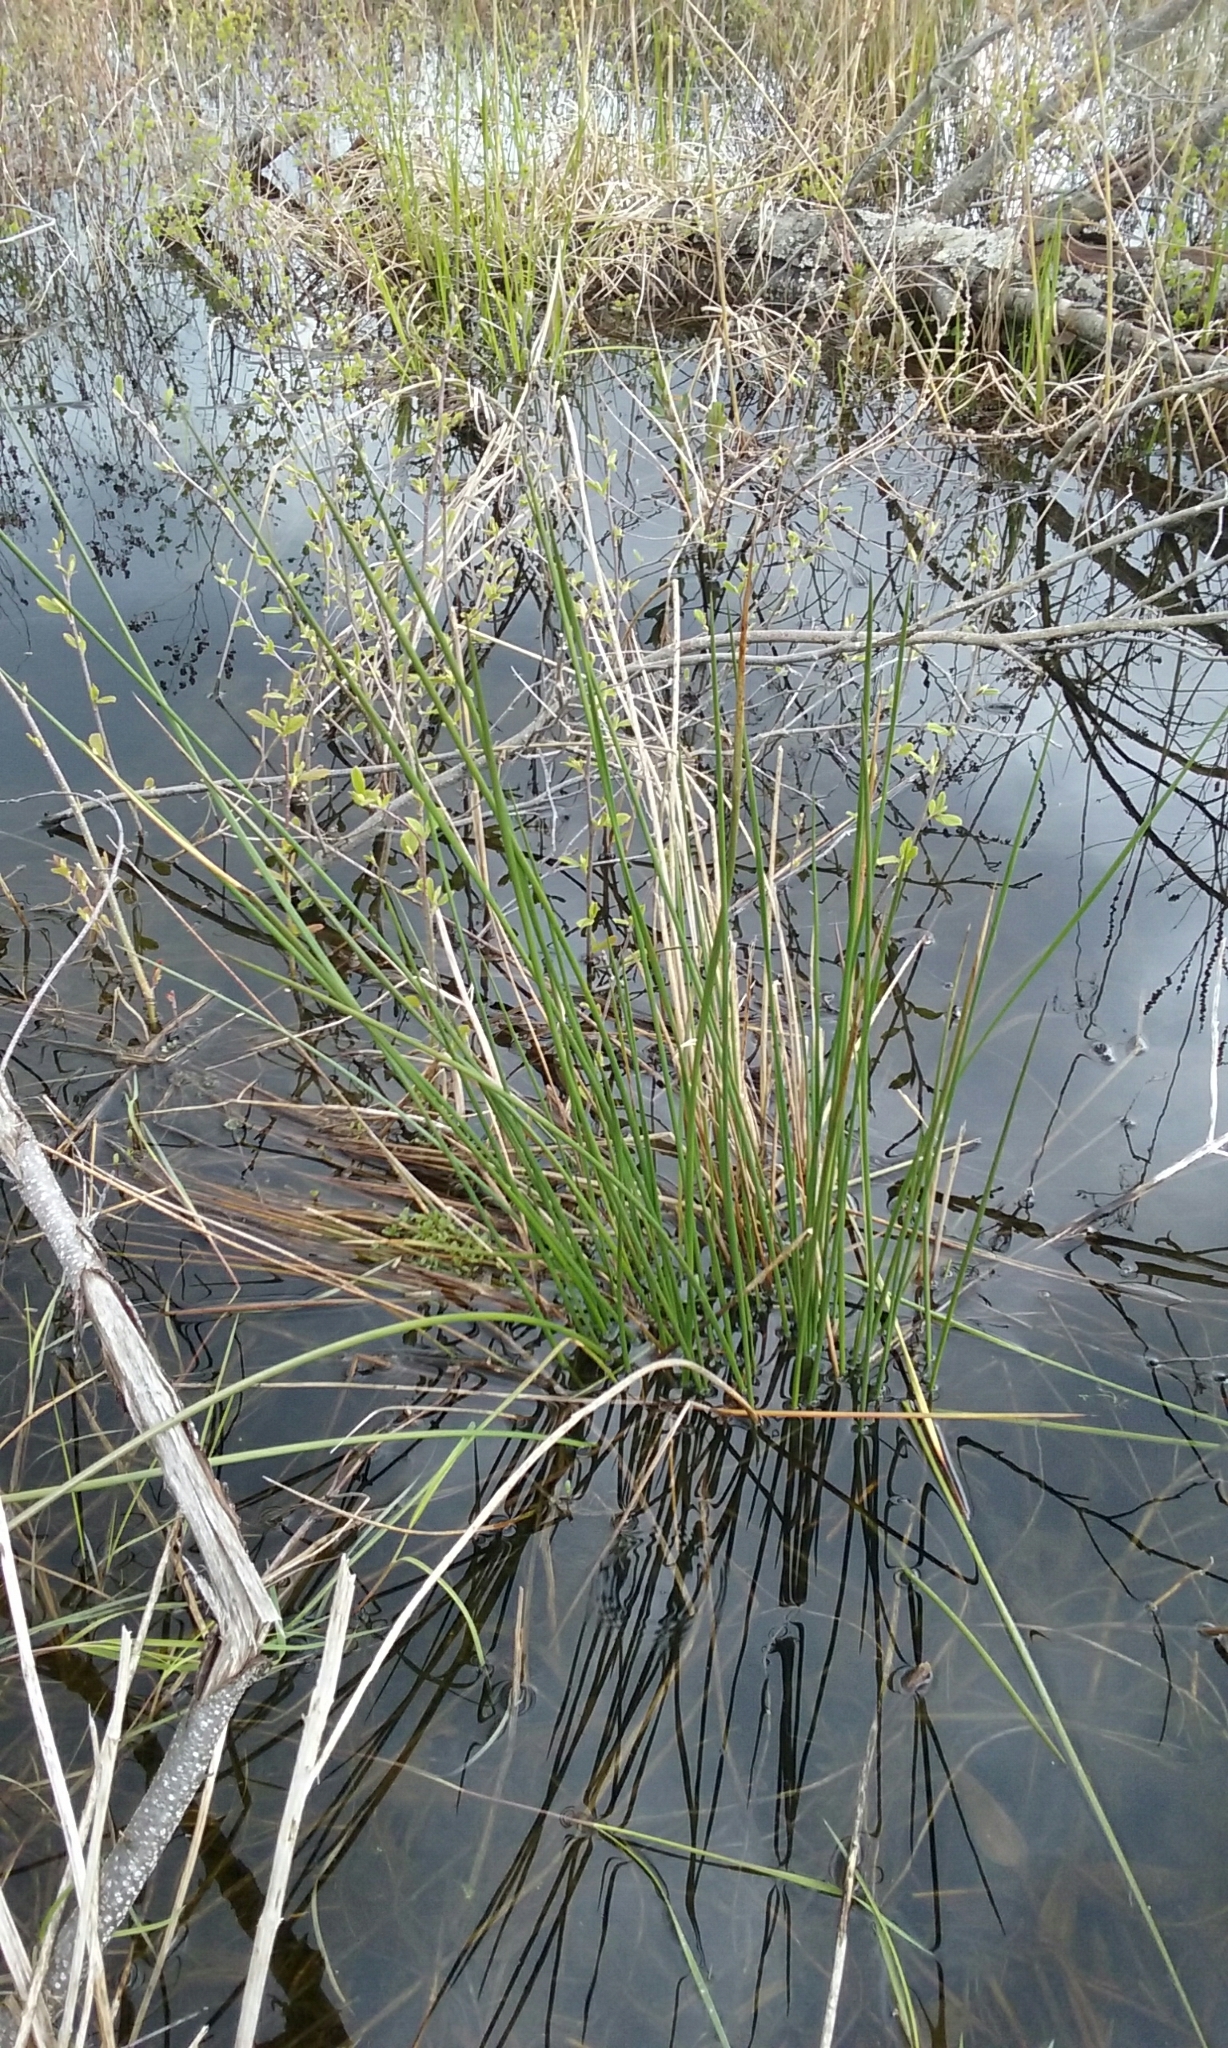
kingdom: Plantae
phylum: Tracheophyta
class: Liliopsida
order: Poales
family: Juncaceae
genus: Juncus
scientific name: Juncus effusus
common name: Soft rush
